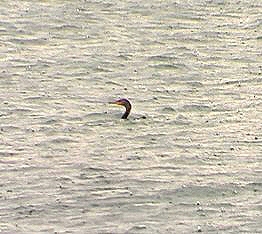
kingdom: Animalia
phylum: Chordata
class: Aves
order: Suliformes
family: Phalacrocoracidae
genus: Phalacrocorax
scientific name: Phalacrocorax auritus
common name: Double-crested cormorant
